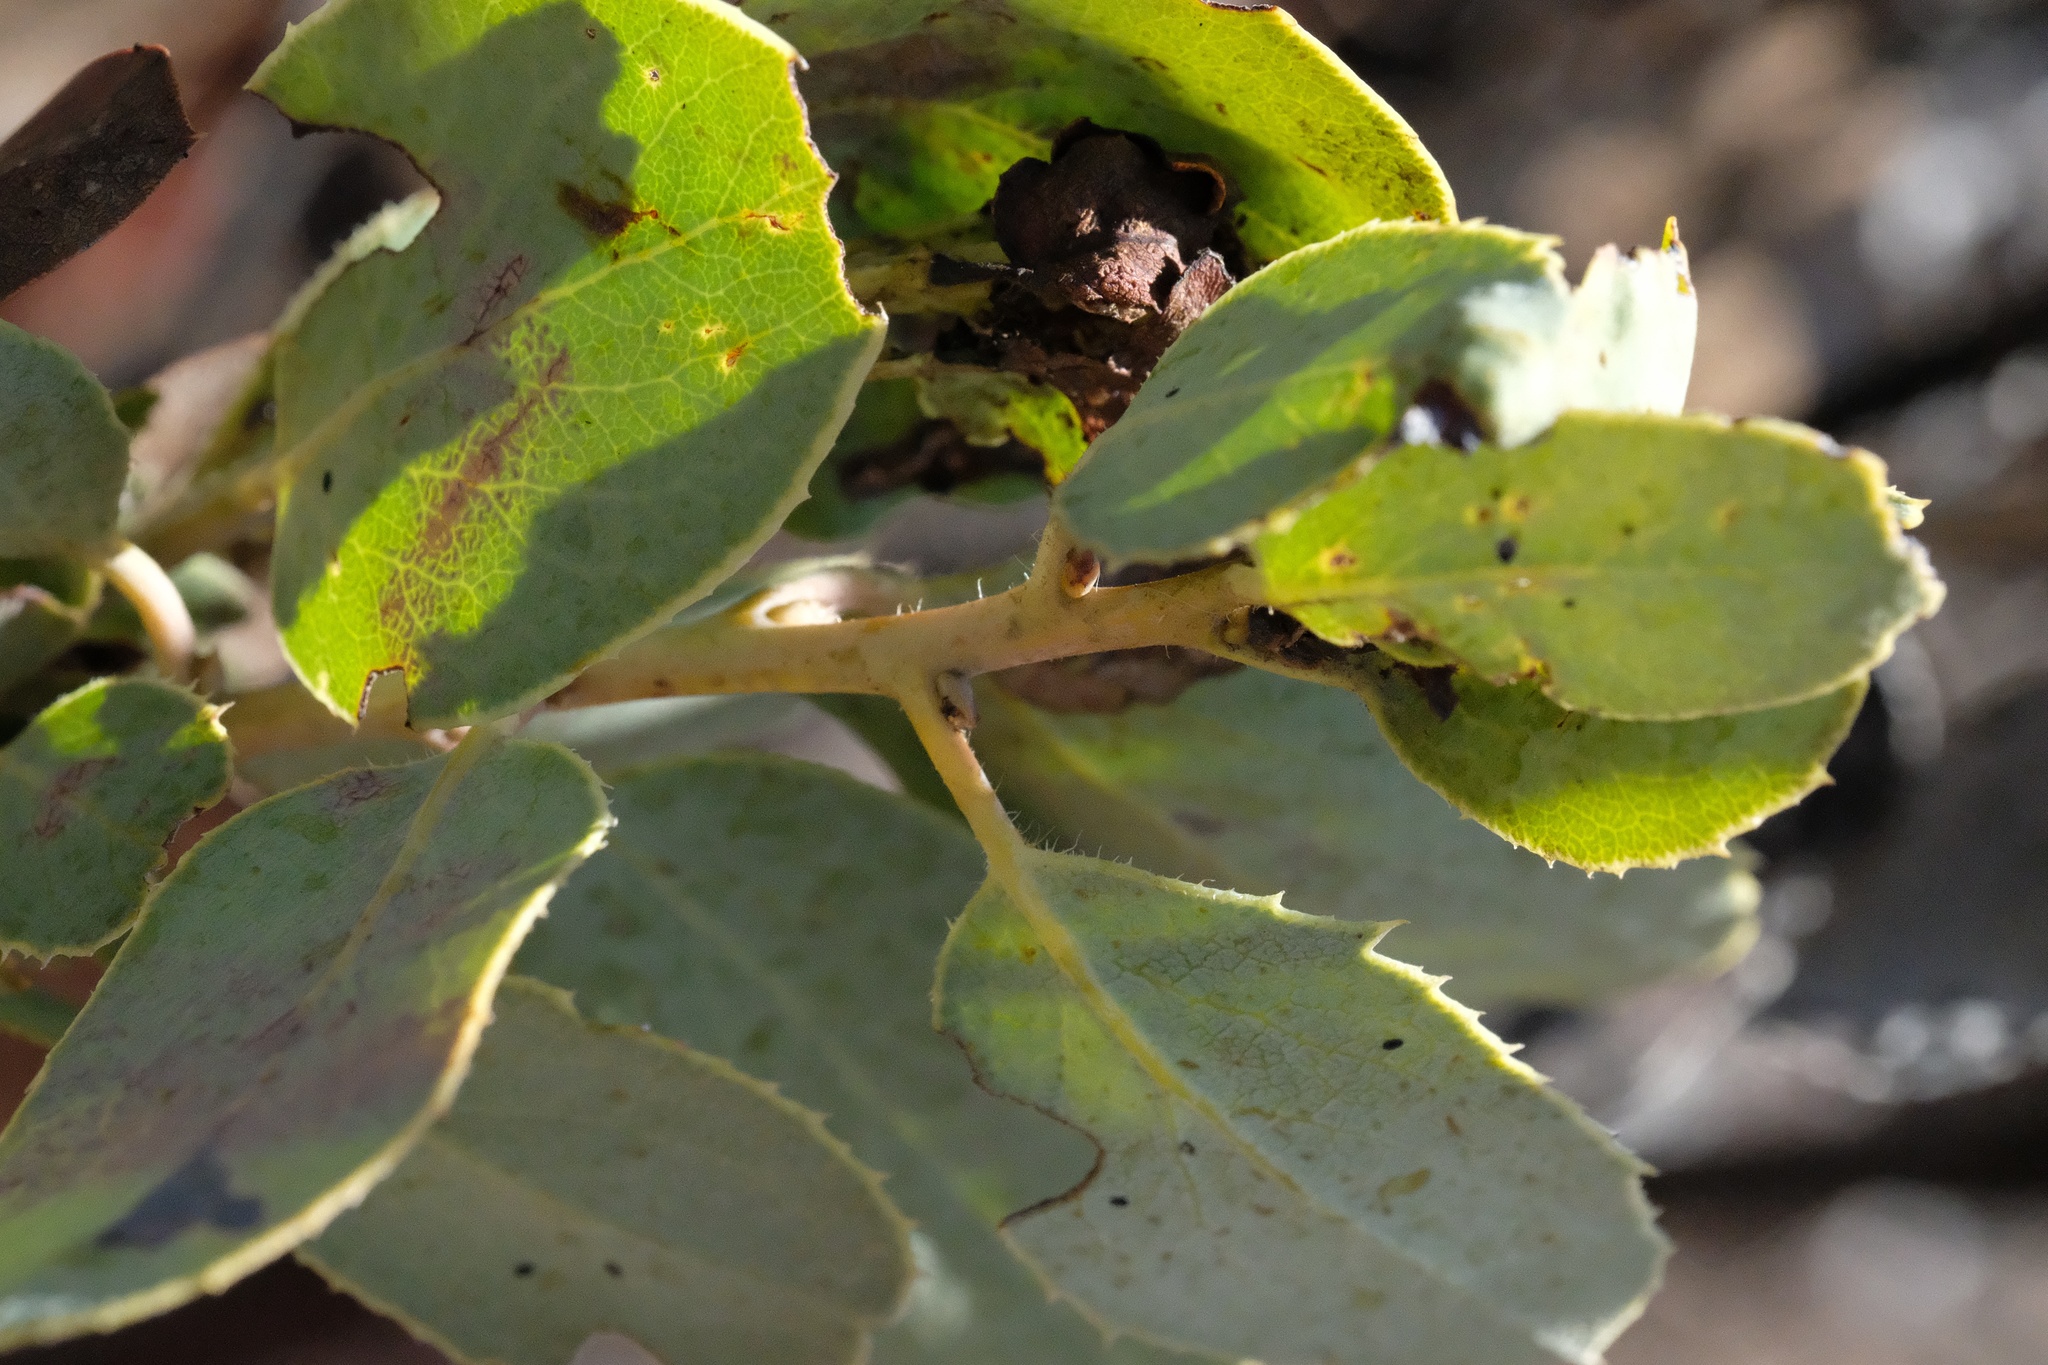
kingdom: Plantae
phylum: Tracheophyta
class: Magnoliopsida
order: Ericales
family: Ericaceae
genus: Arctostaphylos
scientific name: Arctostaphylos glauca
